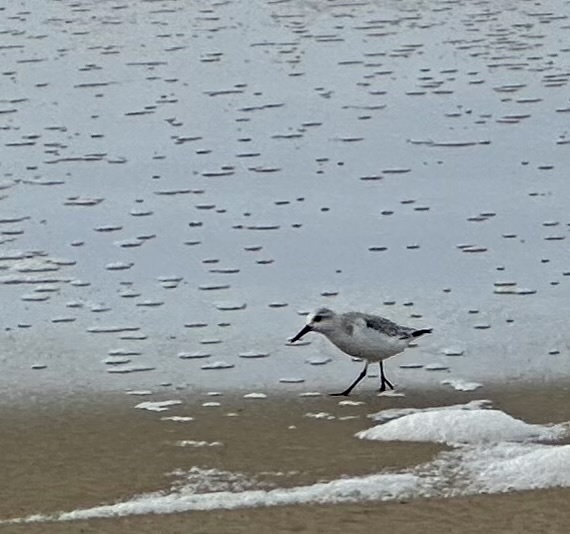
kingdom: Animalia
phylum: Chordata
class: Aves
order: Charadriiformes
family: Scolopacidae
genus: Calidris
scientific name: Calidris alba
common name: Sanderling
